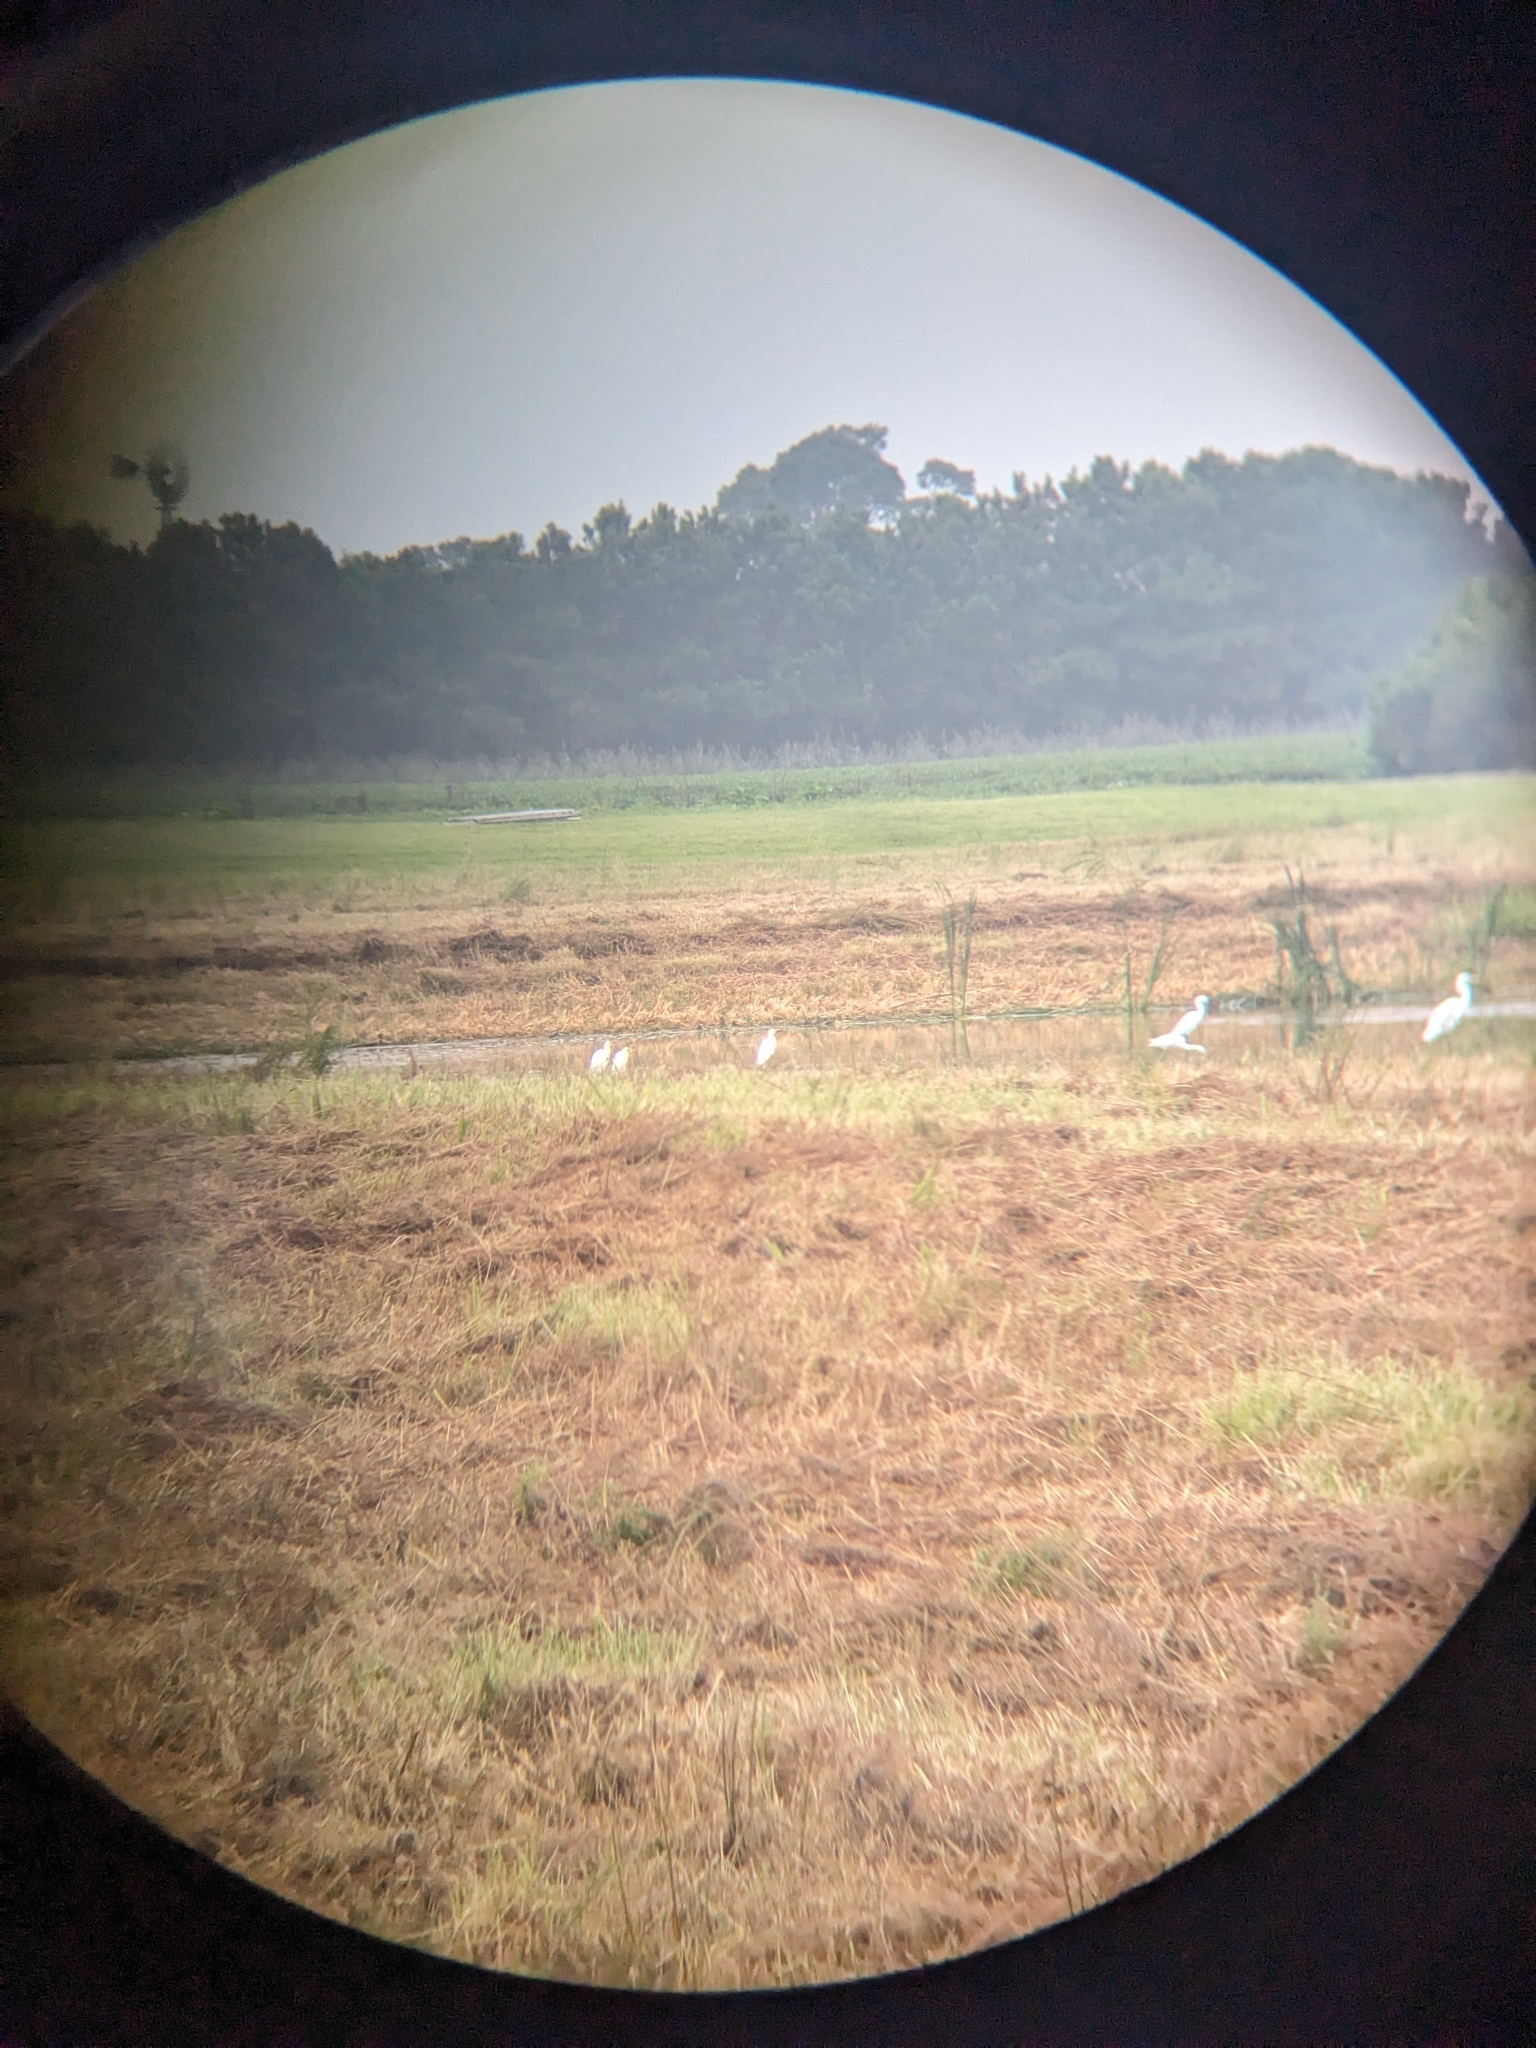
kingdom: Animalia
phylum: Chordata
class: Aves
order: Pelecaniformes
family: Ardeidae
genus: Bubulcus
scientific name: Bubulcus ibis
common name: Cattle egret
